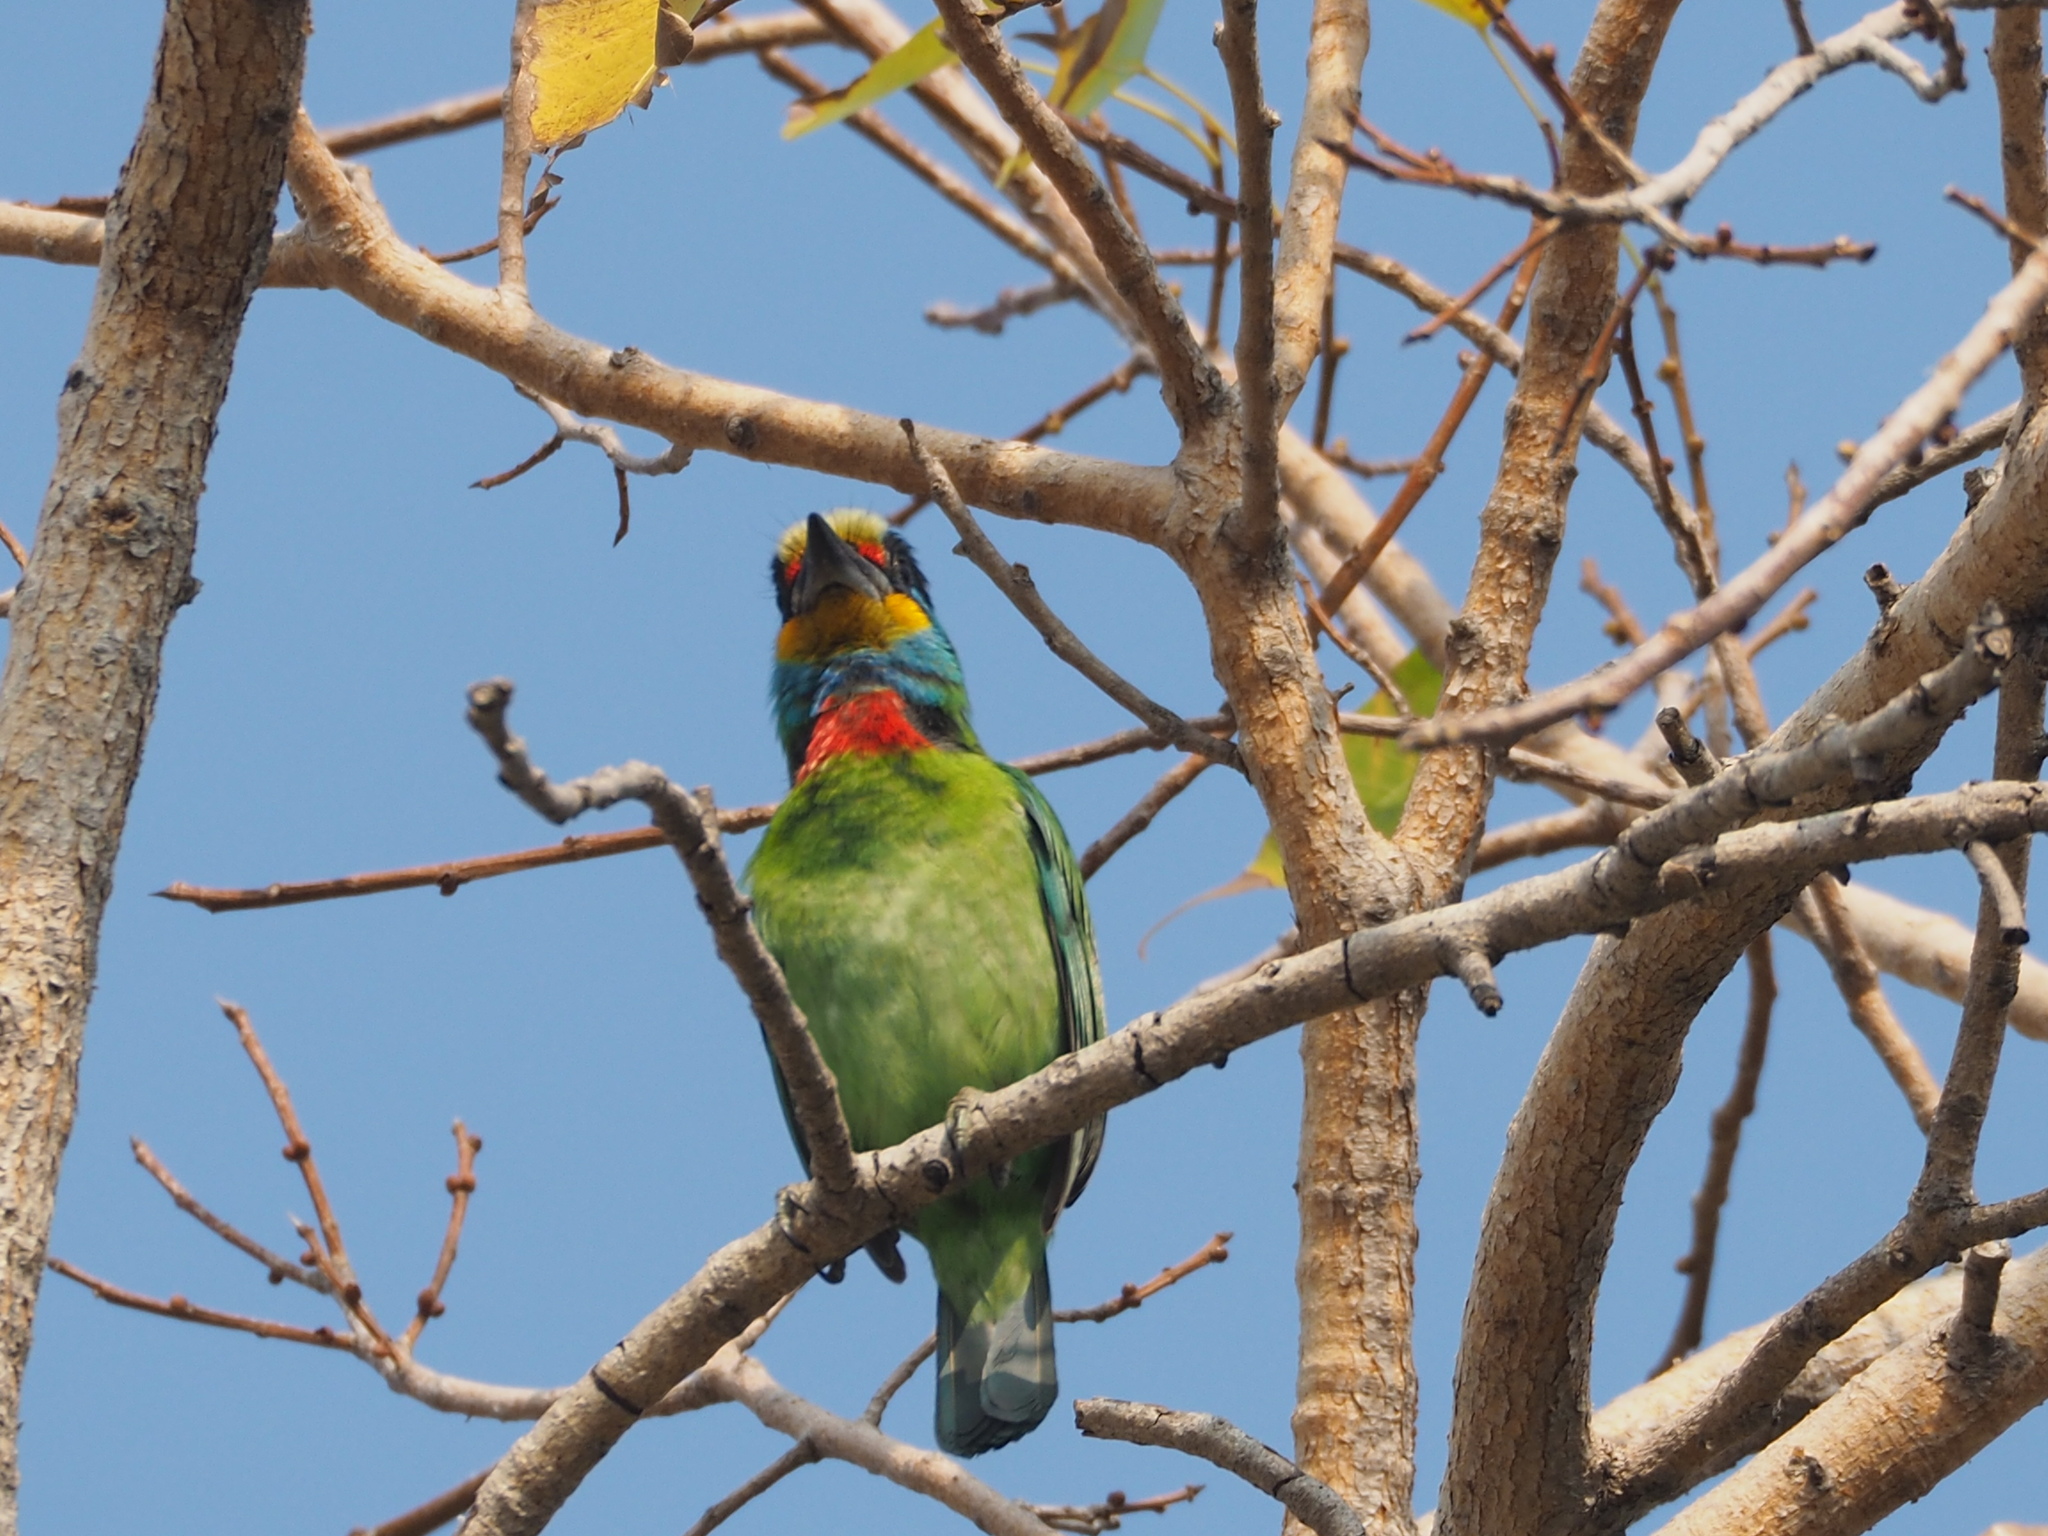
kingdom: Animalia
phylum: Chordata
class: Aves
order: Piciformes
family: Megalaimidae
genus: Psilopogon
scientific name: Psilopogon nuchalis
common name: Taiwan barbet
